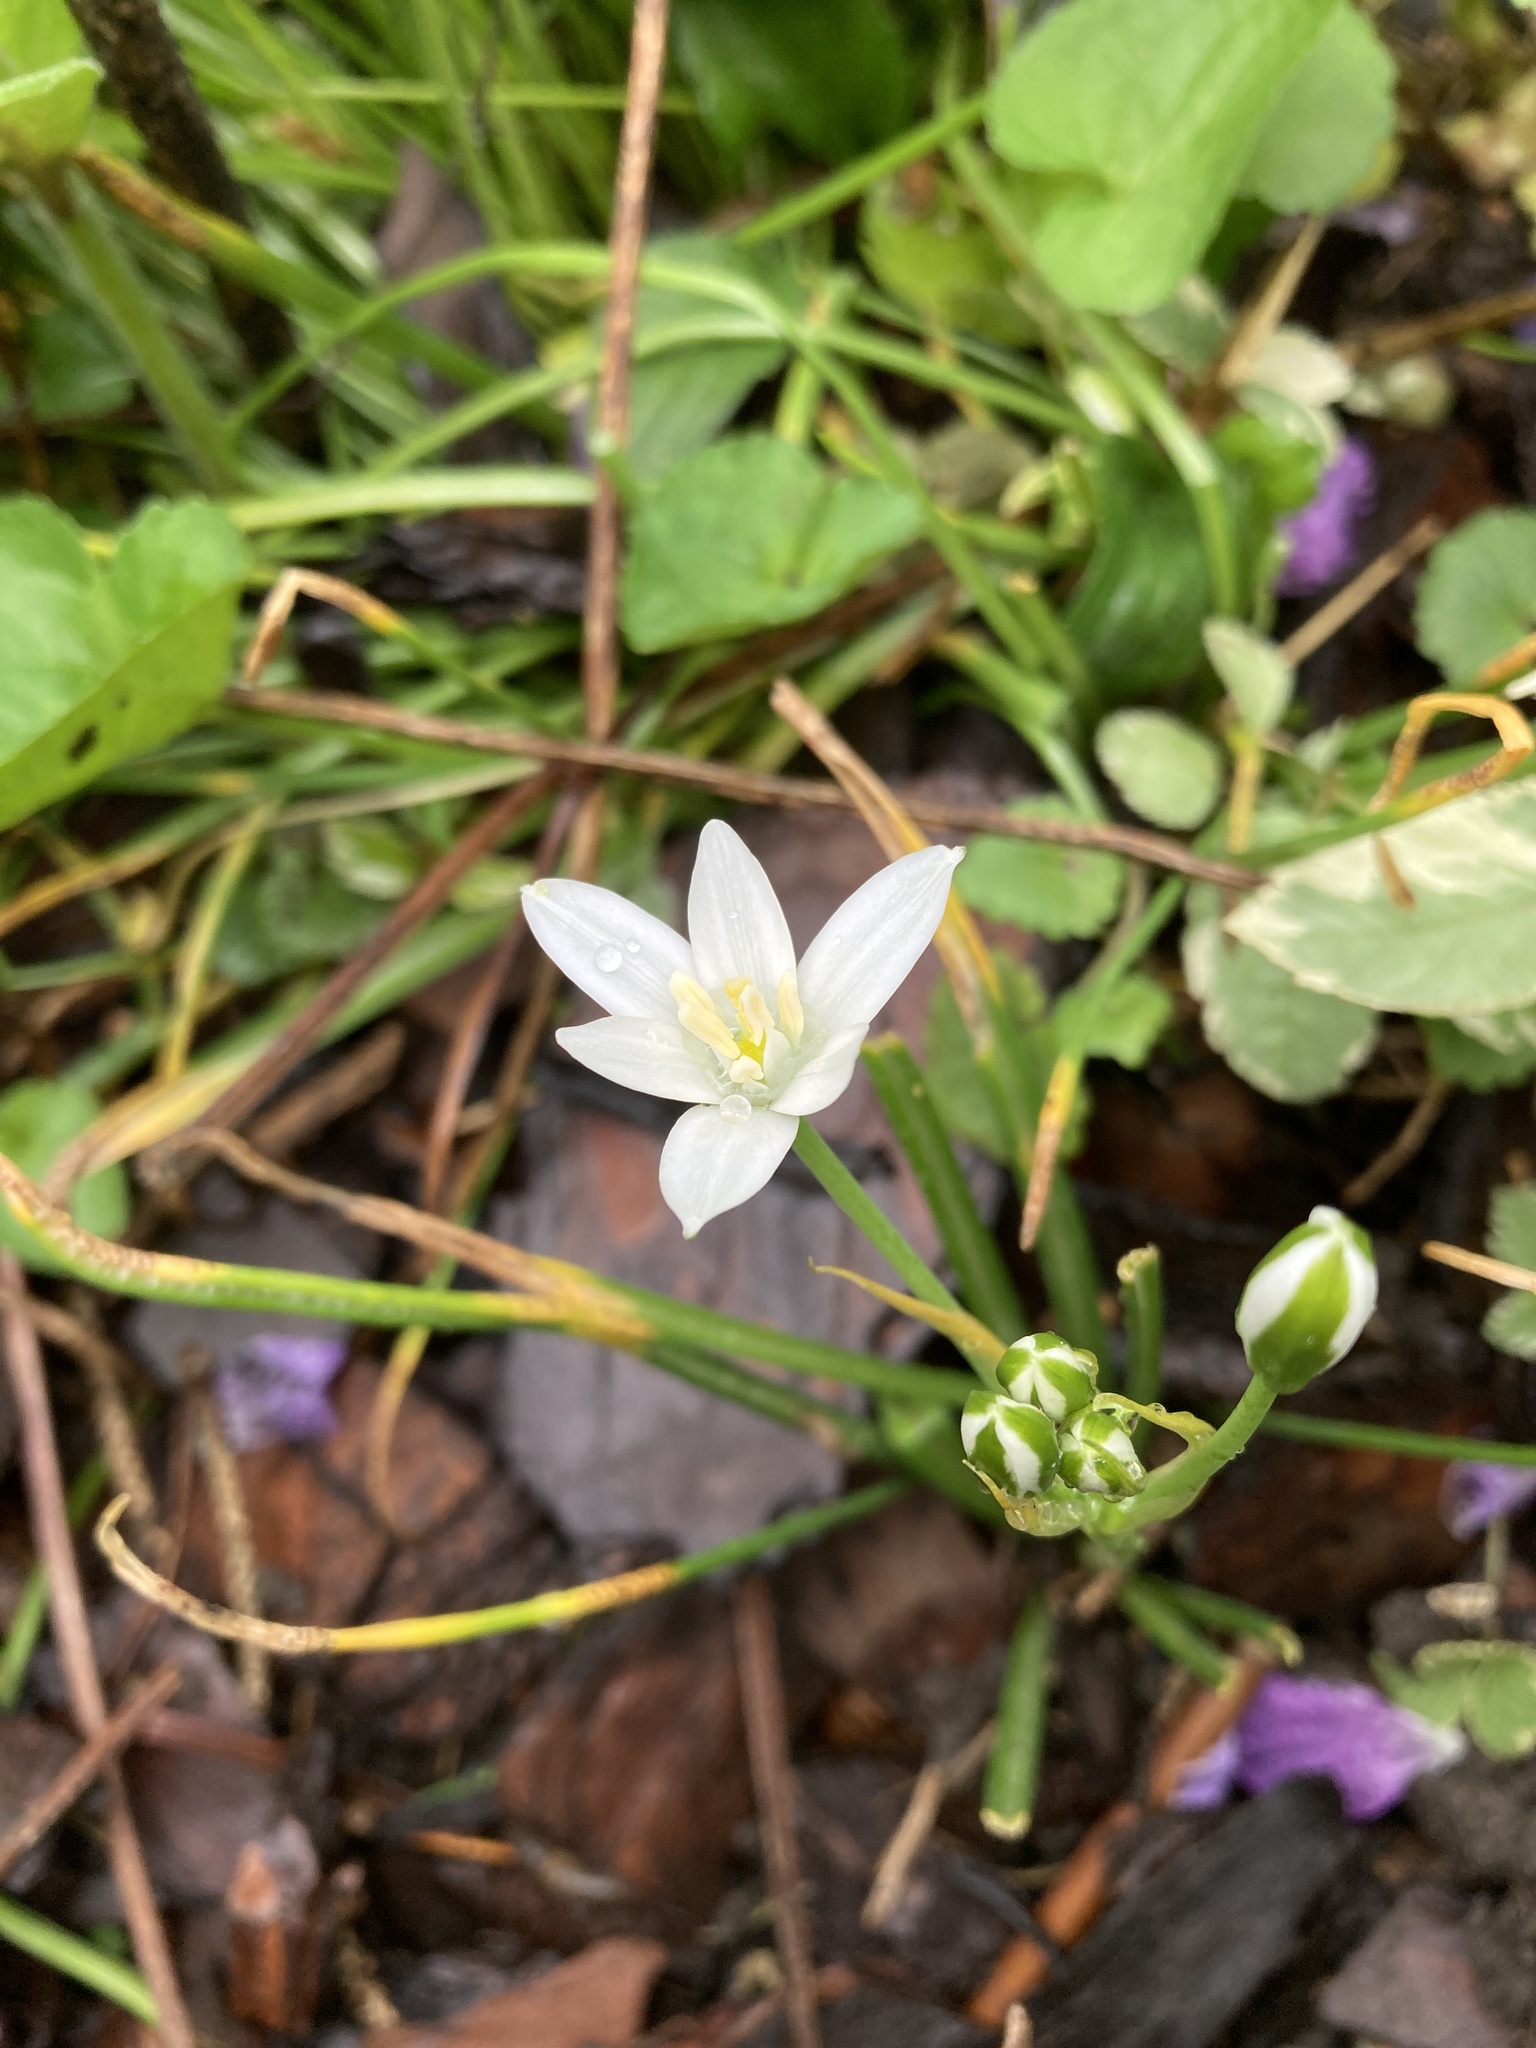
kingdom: Plantae
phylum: Tracheophyta
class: Liliopsida
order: Asparagales
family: Asparagaceae
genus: Ornithogalum
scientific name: Ornithogalum umbellatum
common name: Garden star-of-bethlehem
